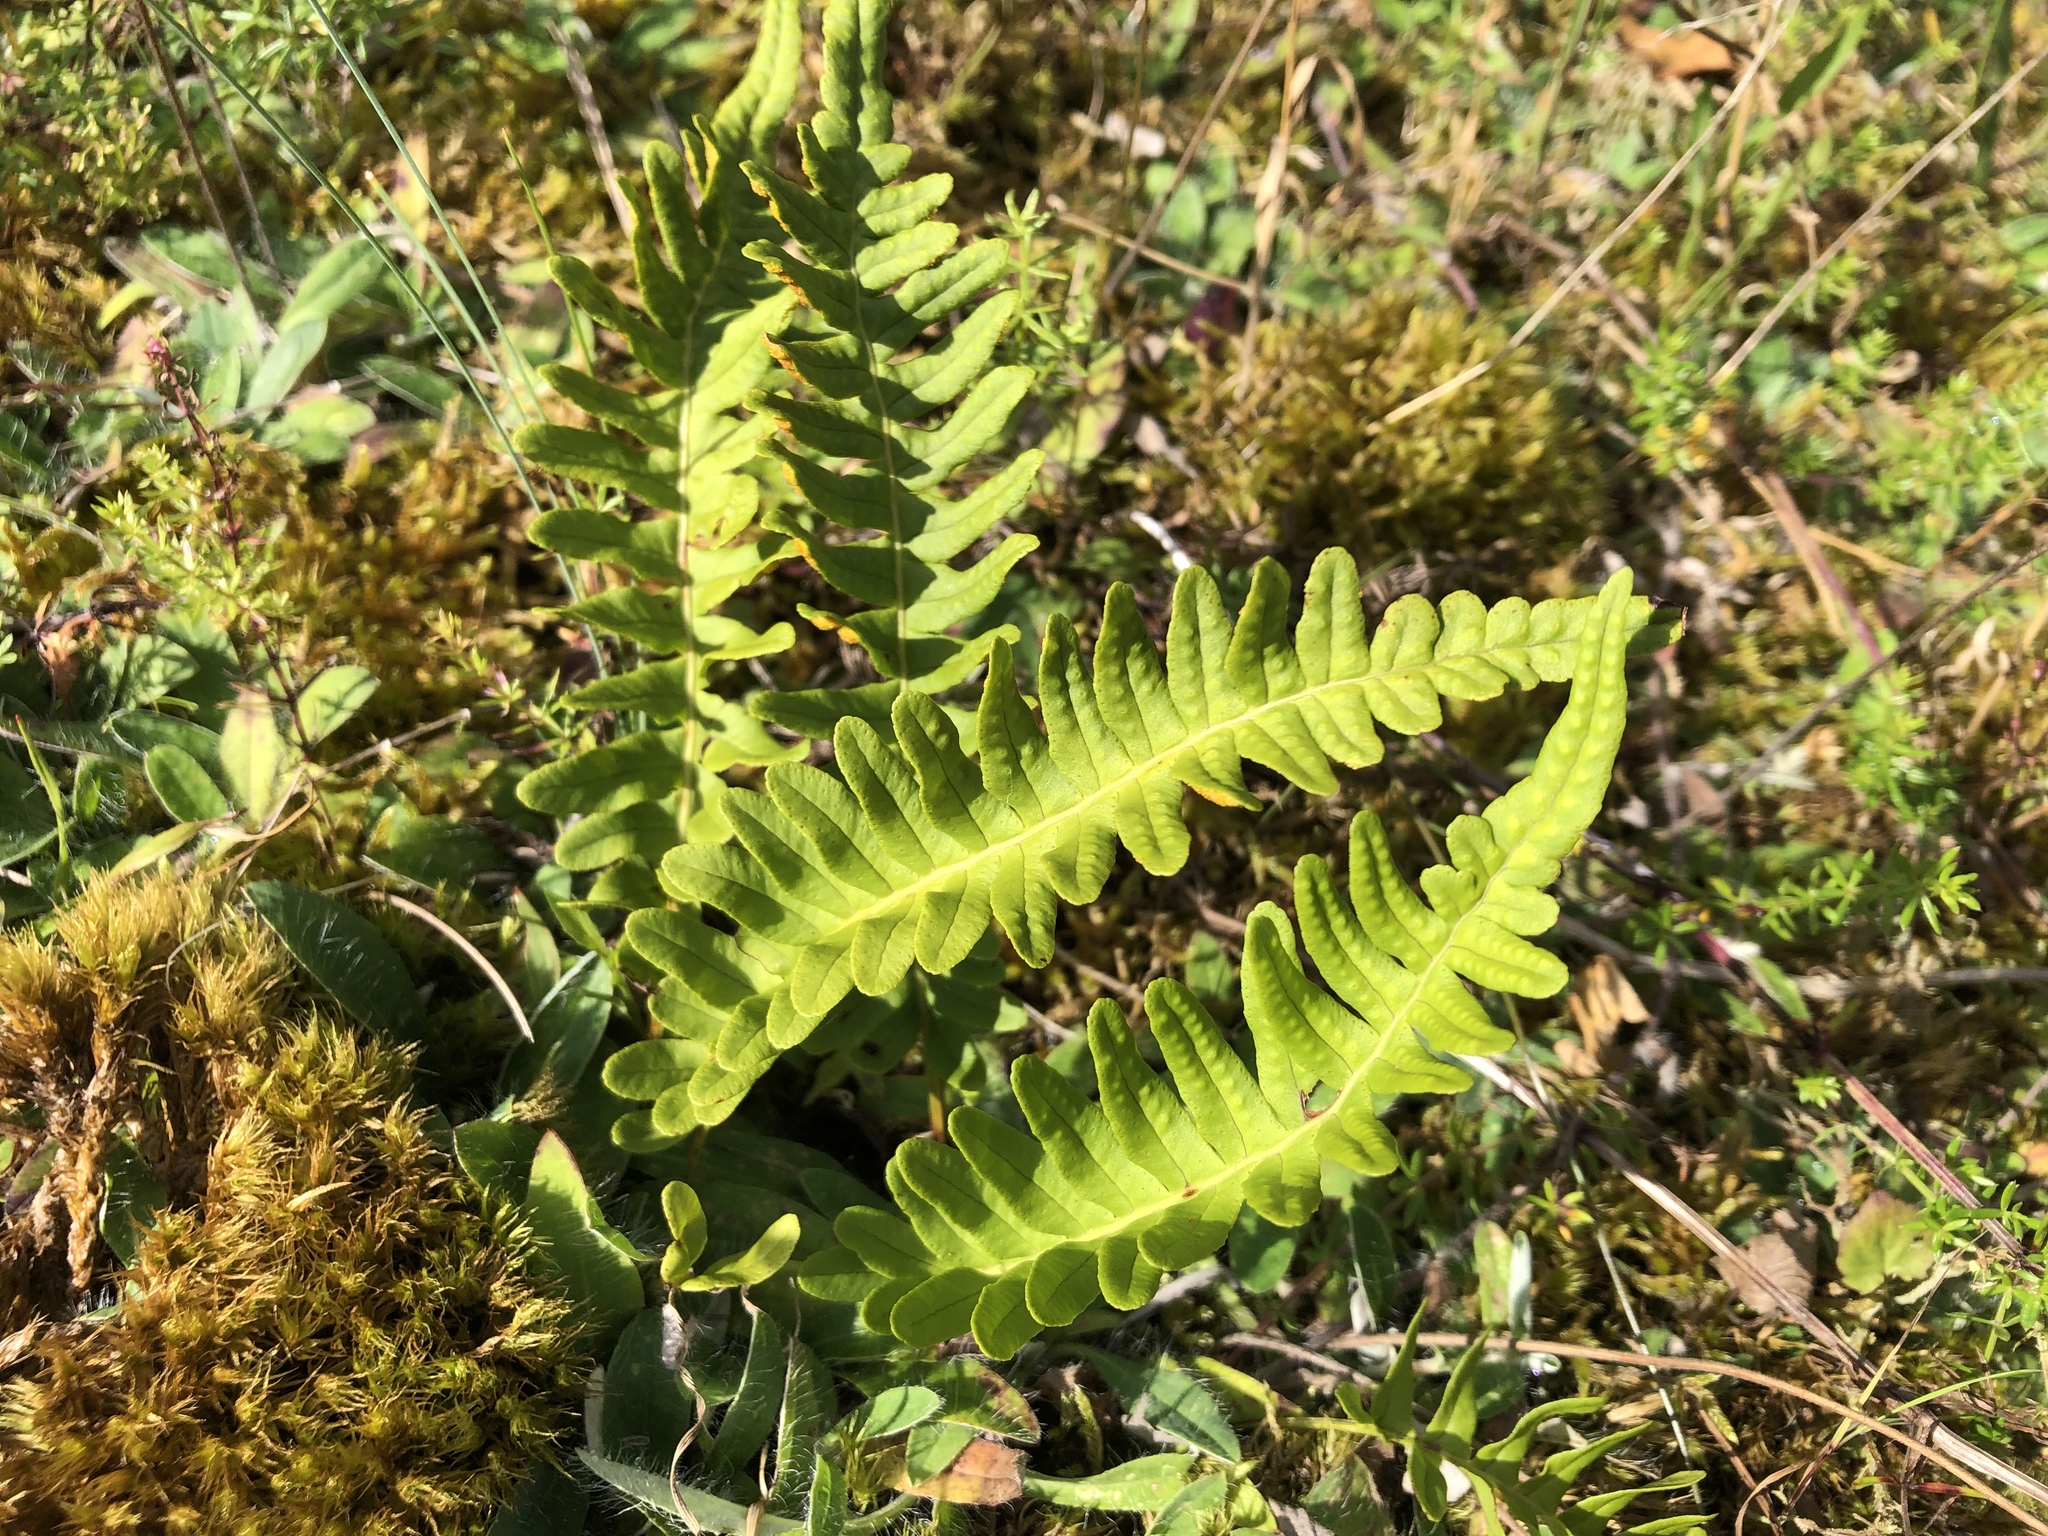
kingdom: Plantae
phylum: Tracheophyta
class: Polypodiopsida
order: Polypodiales
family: Polypodiaceae
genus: Polypodium
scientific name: Polypodium vulgare
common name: Common polypody
